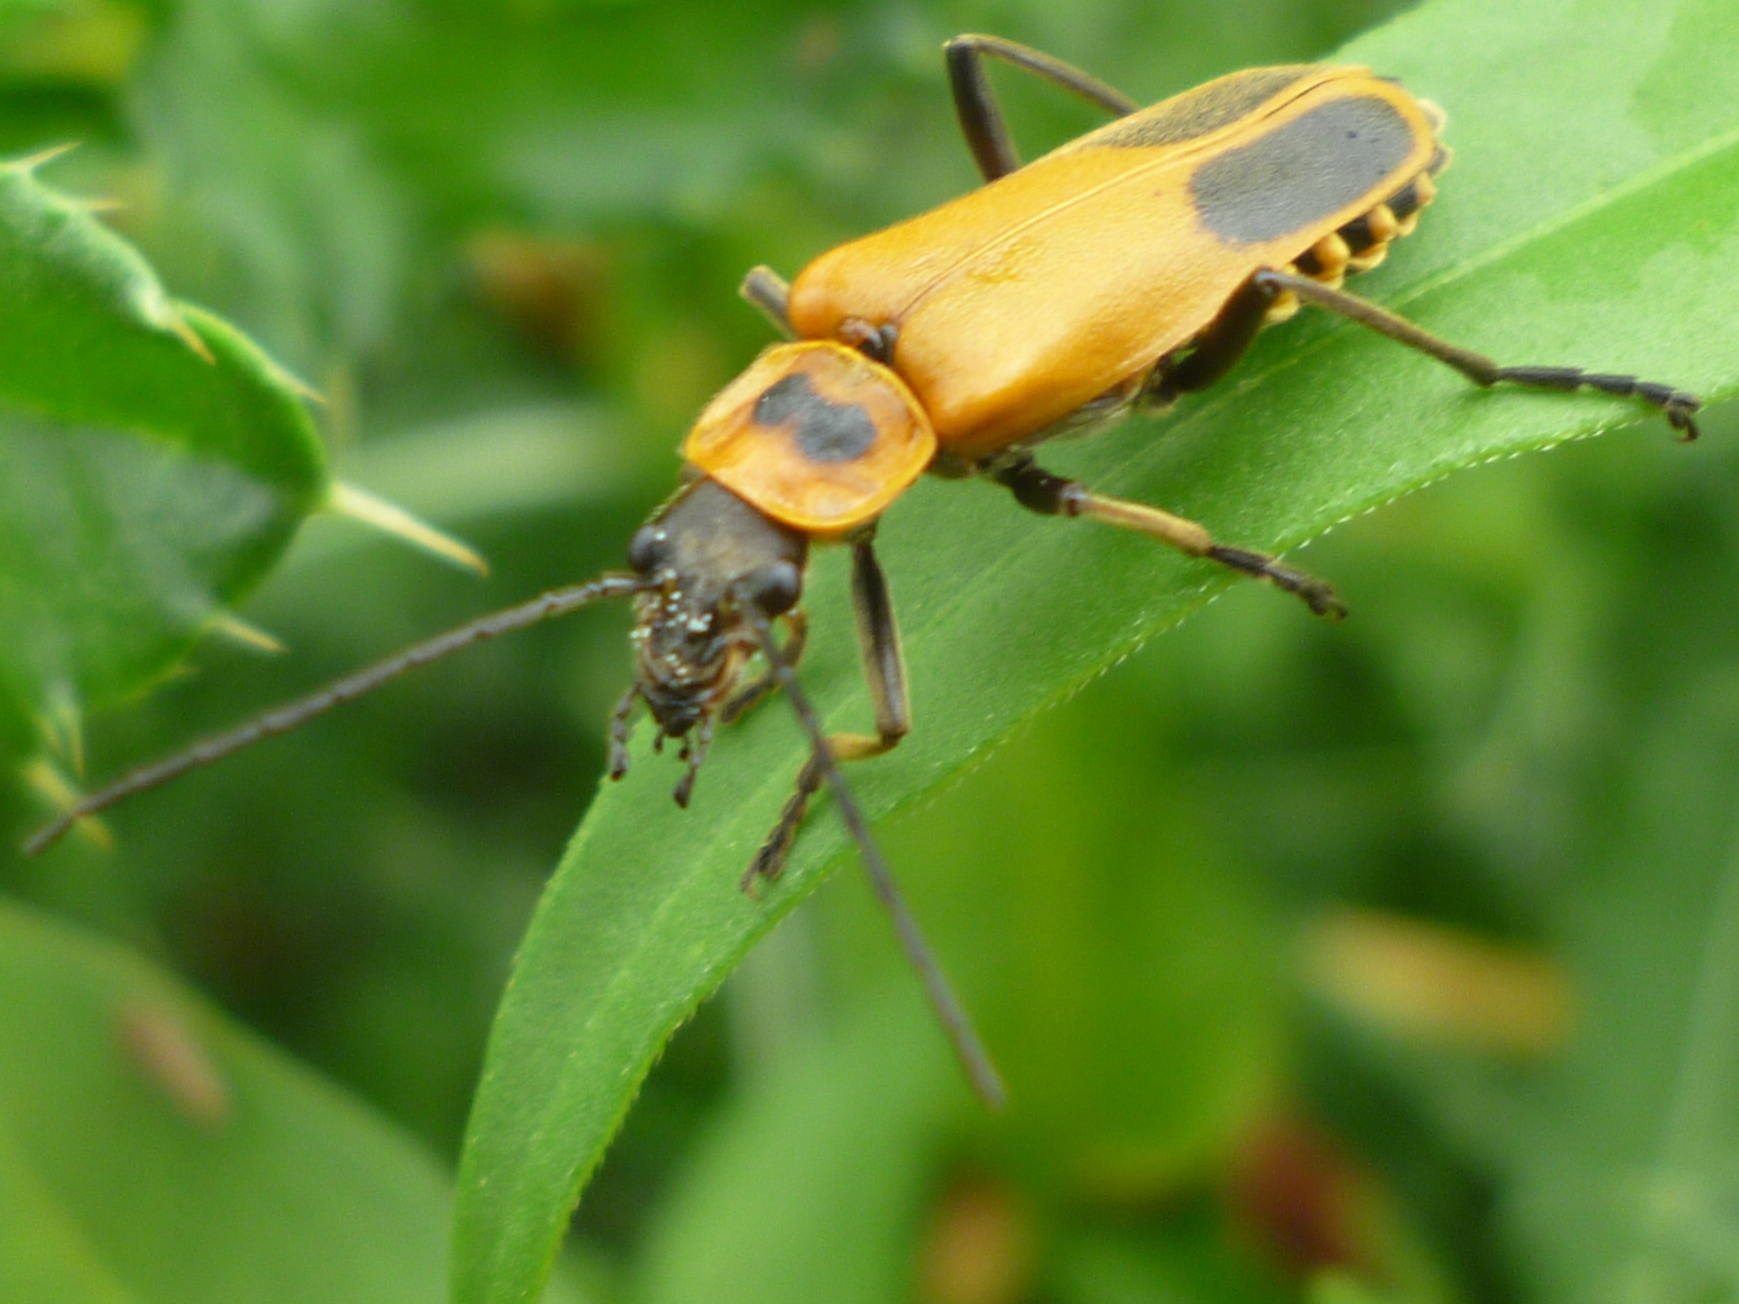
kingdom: Animalia
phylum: Arthropoda
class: Insecta
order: Coleoptera
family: Cantharidae
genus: Chauliognathus
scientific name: Chauliognathus pensylvanicus
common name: Goldenrod soldier beetle
